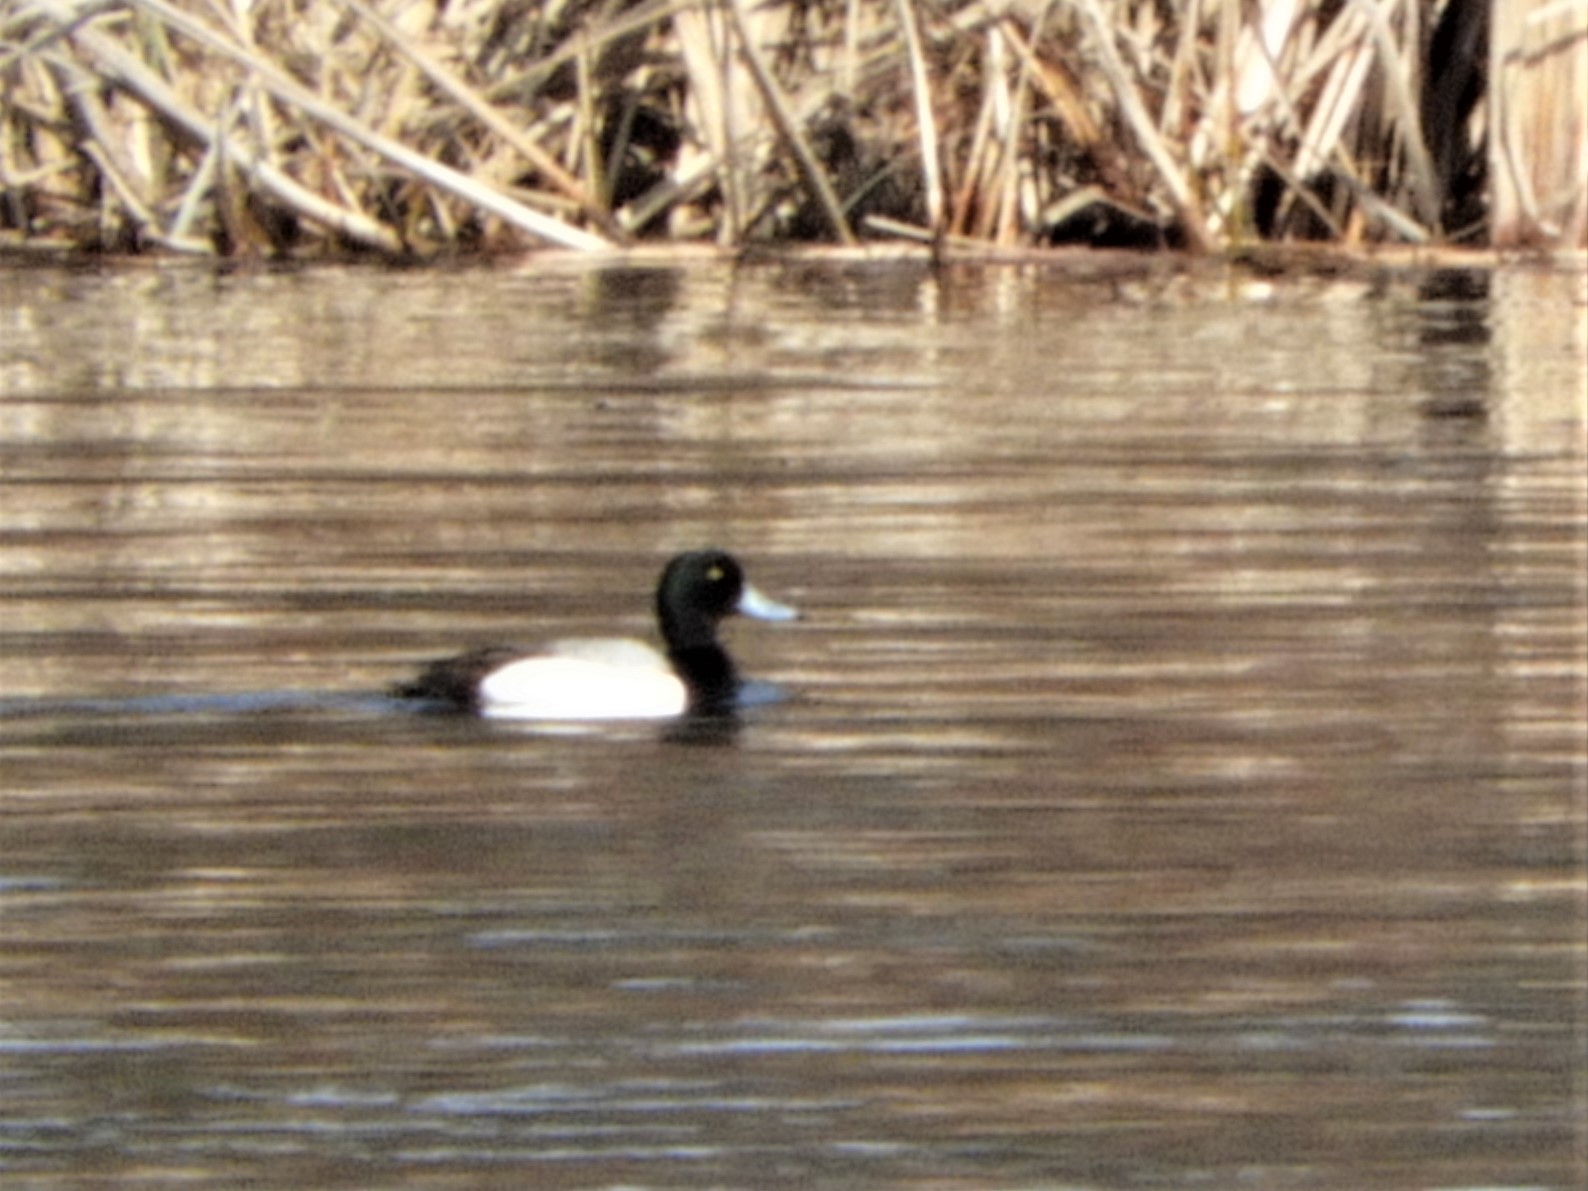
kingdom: Animalia
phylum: Chordata
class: Aves
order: Anseriformes
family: Anatidae
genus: Aythya
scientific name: Aythya marila
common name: Greater scaup
